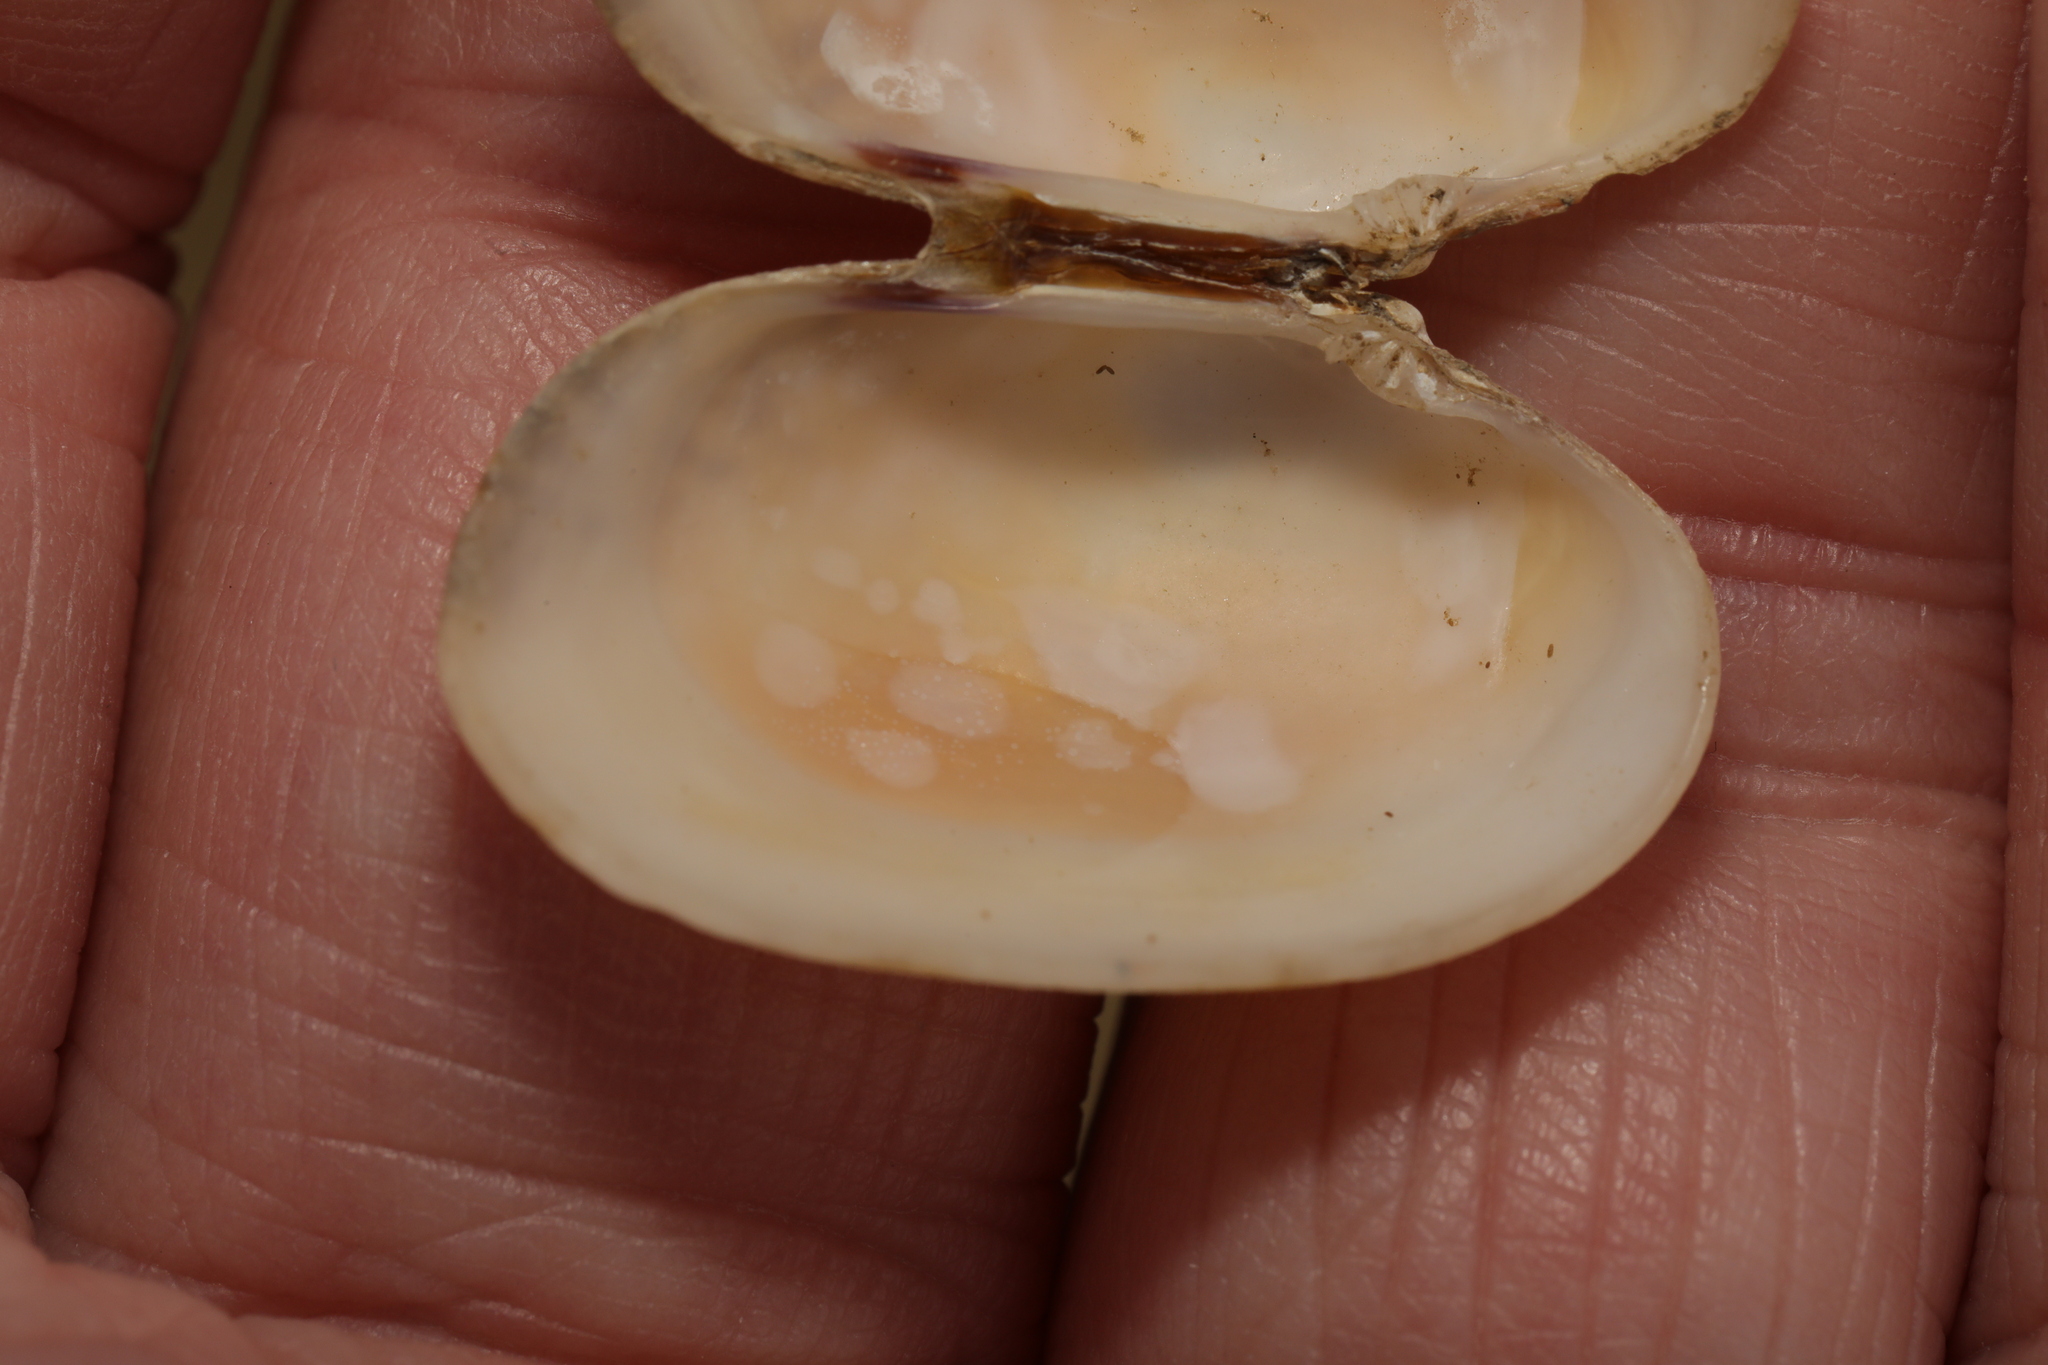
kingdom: Animalia
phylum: Mollusca
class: Bivalvia
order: Venerida
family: Veneridae
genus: Venerupis
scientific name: Venerupis corrugata
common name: Pullet carpet shell
